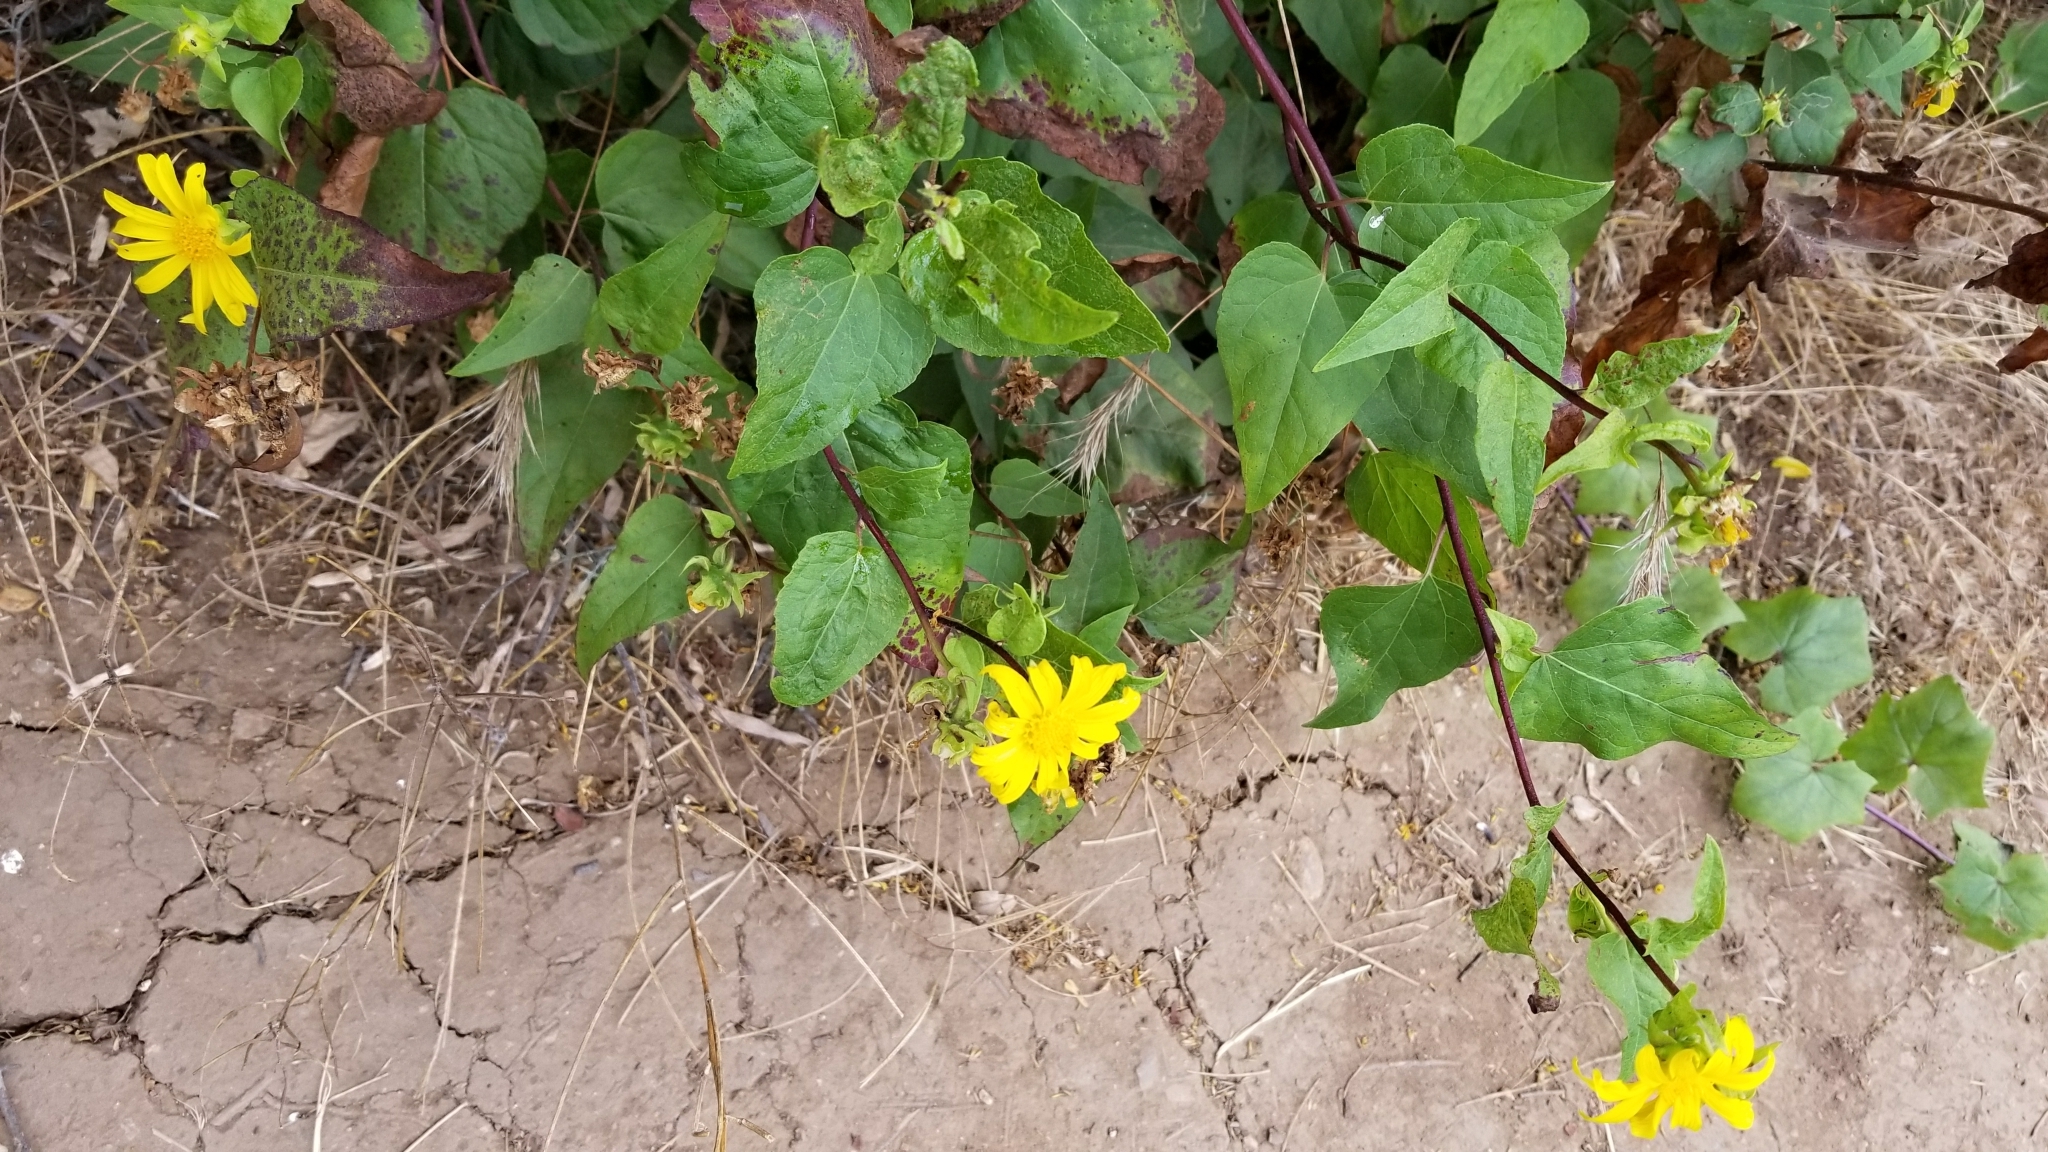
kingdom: Plantae
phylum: Tracheophyta
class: Magnoliopsida
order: Asterales
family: Asteraceae
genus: Venegasia
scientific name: Venegasia carpesioides
